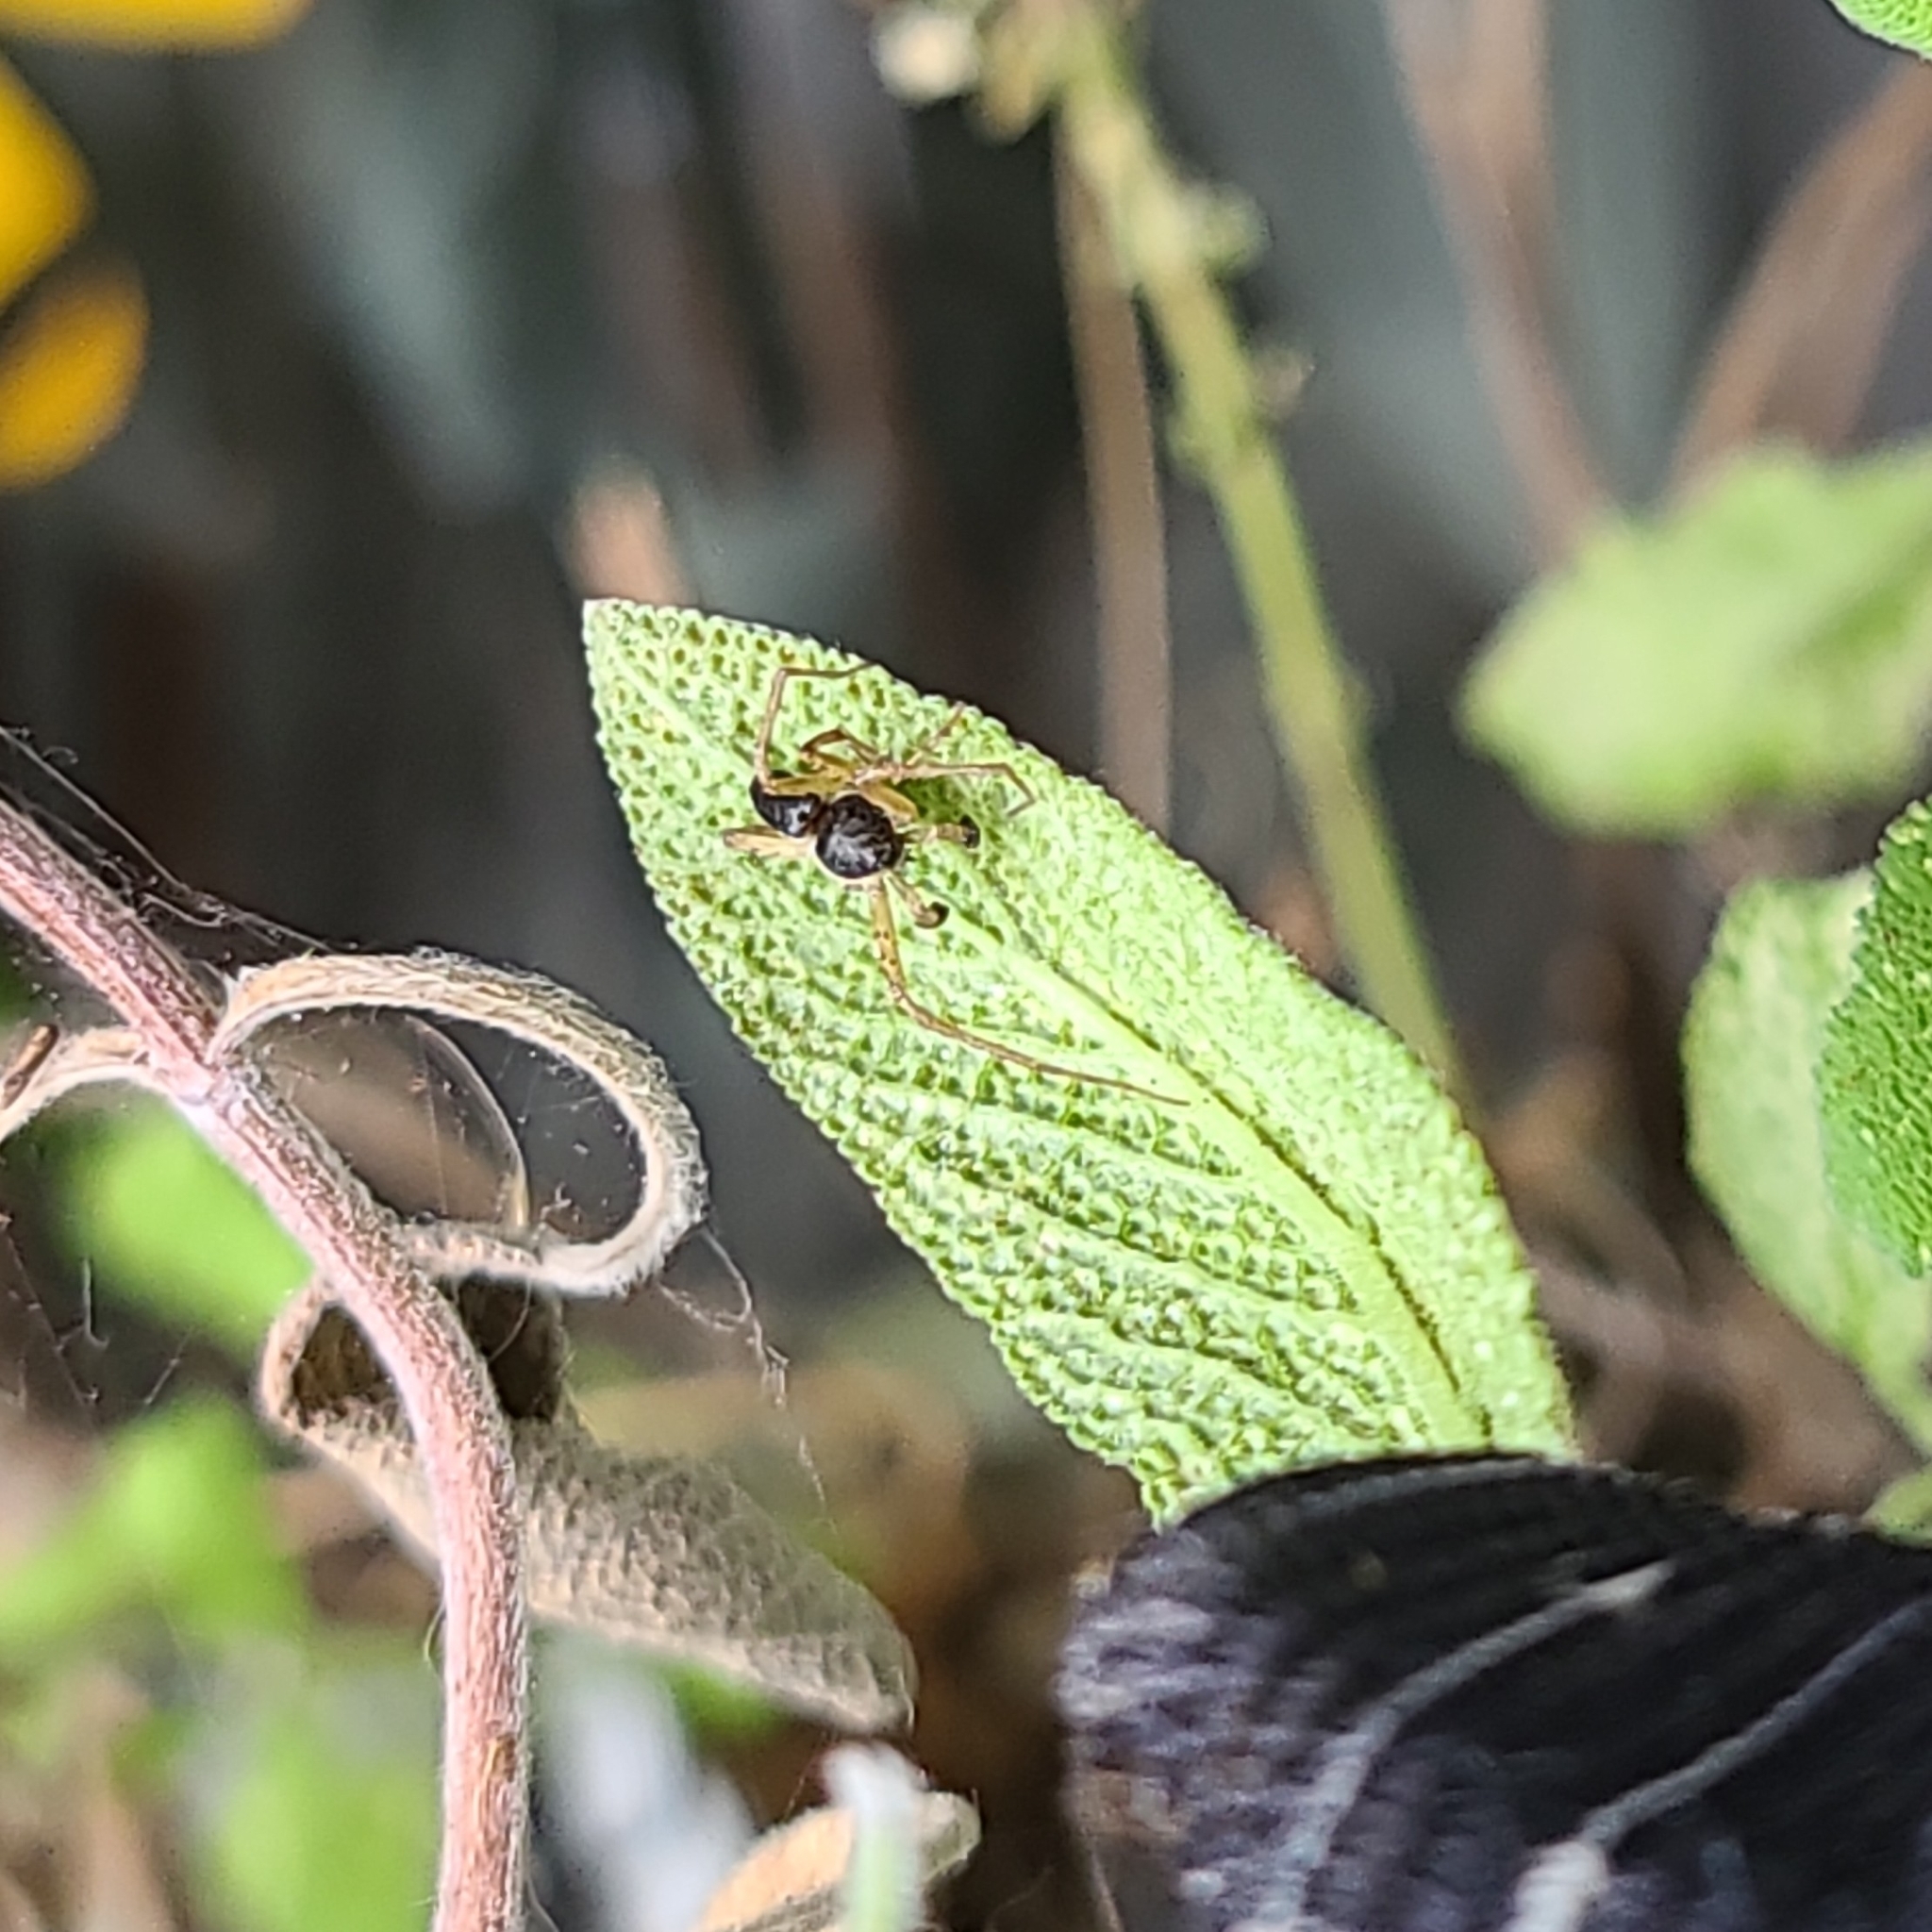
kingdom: Animalia
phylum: Arthropoda
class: Arachnida
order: Araneae
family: Philodromidae
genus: Philodromus
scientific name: Philodromus dispar
